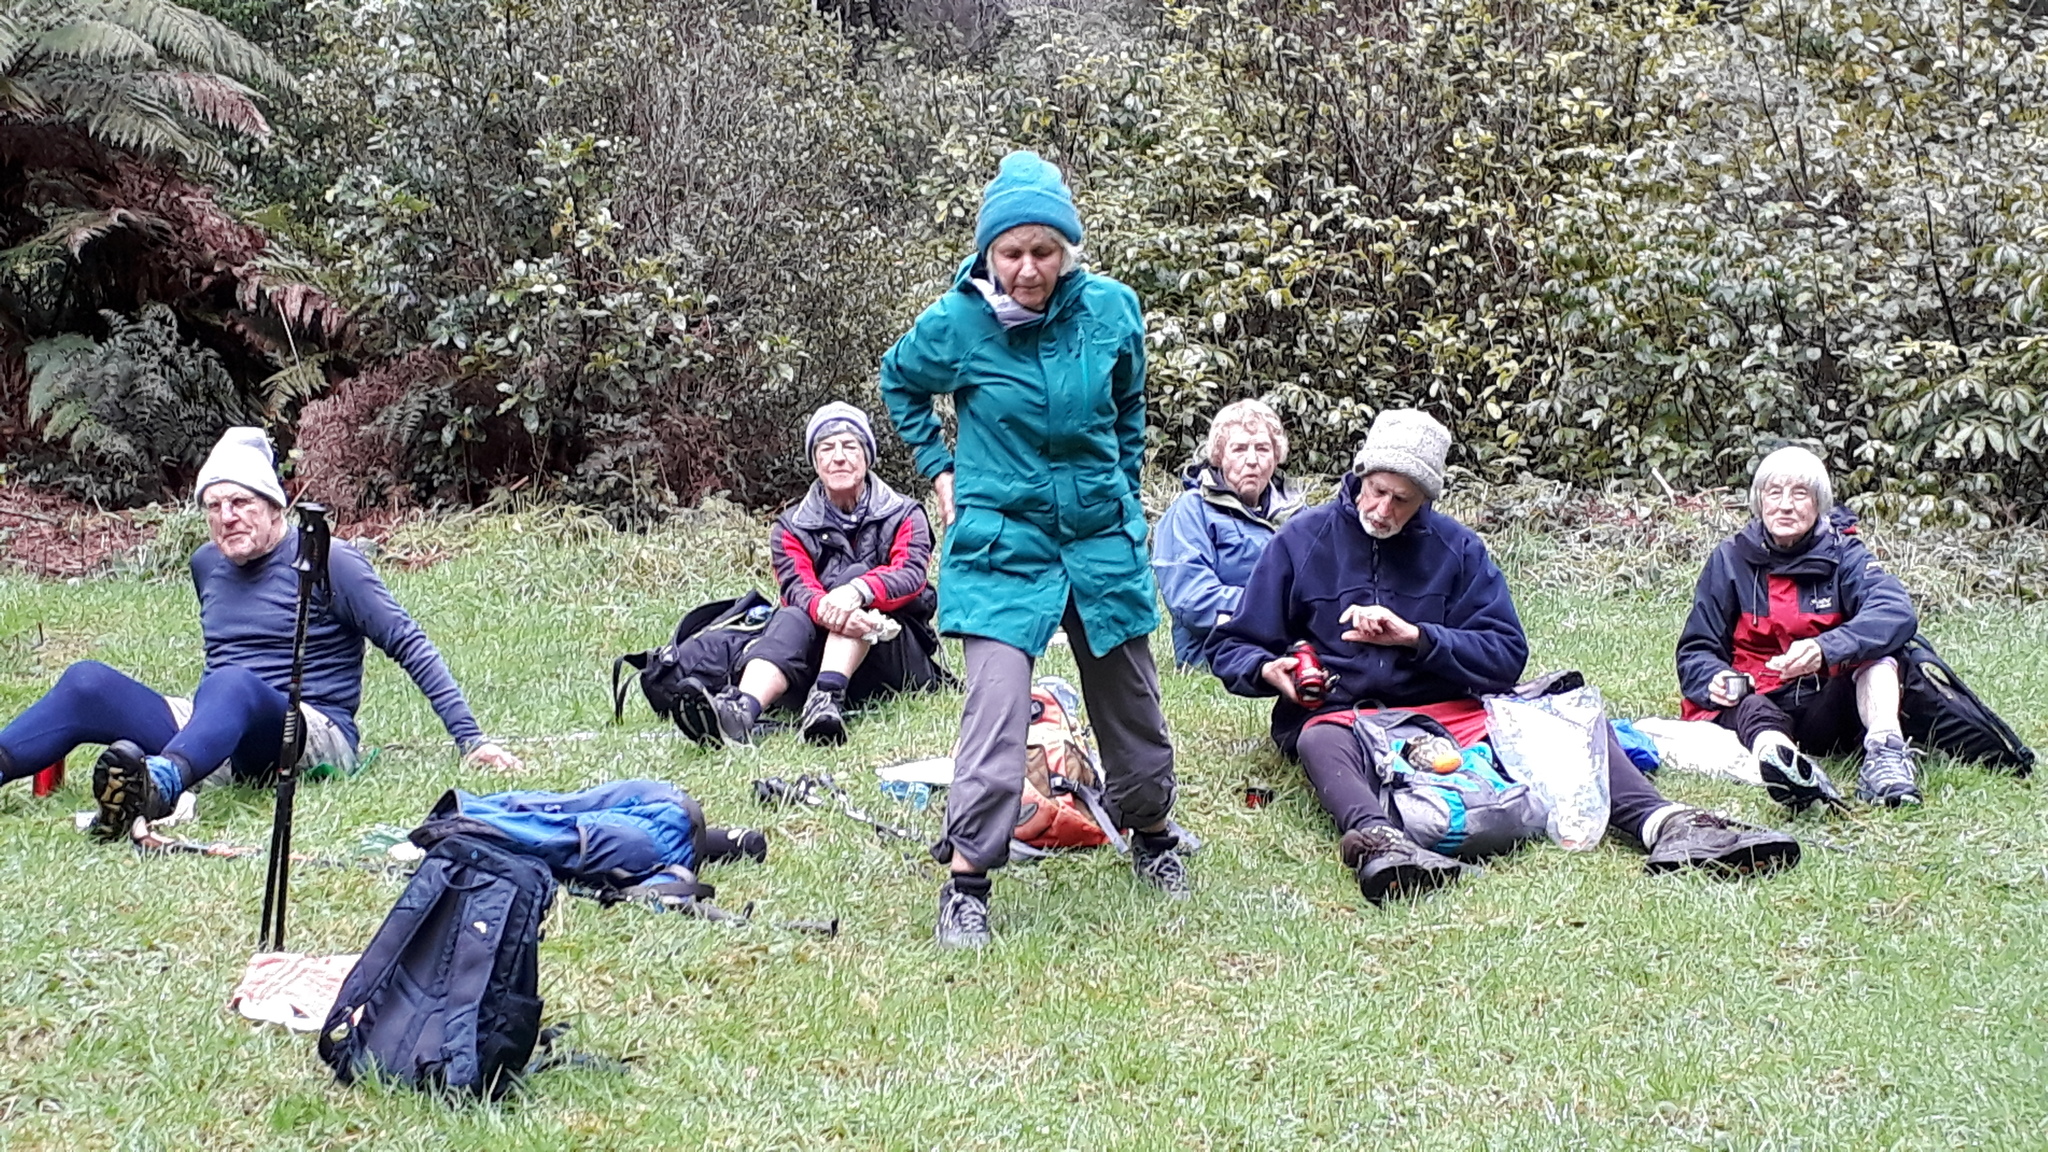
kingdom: Fungi
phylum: Basidiomycota
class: Agaricomycetes
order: Phallales
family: Phallaceae
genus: Aseroe
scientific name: Aseroe rubra
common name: Starfish fungus
